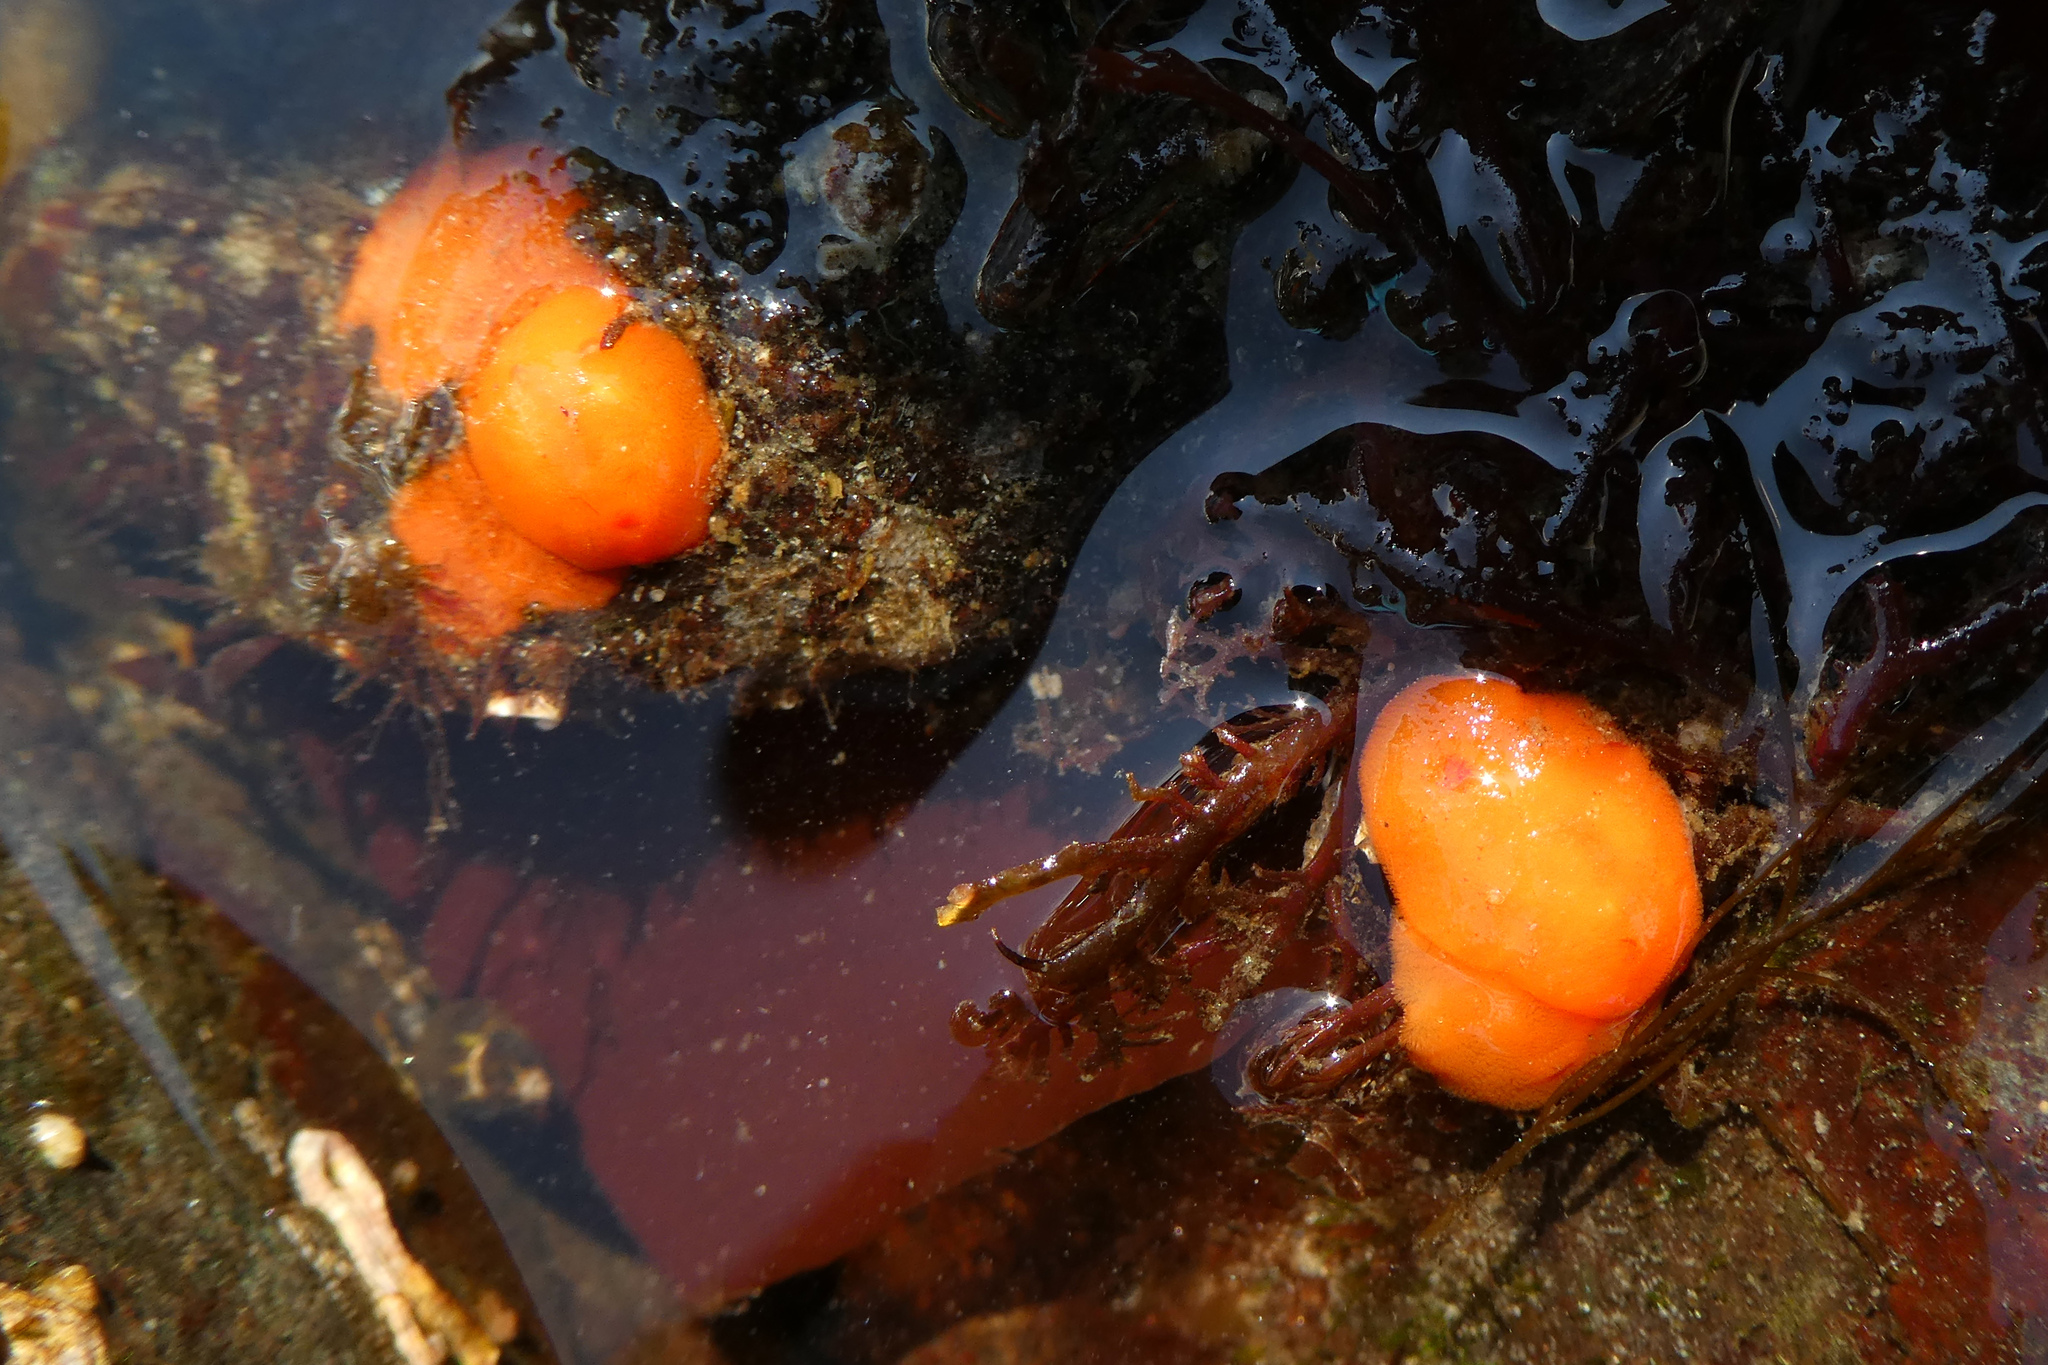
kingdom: Animalia
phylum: Mollusca
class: Gastropoda
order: Nudibranchia
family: Discodorididae
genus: Rostanga
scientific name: Rostanga pulchra
